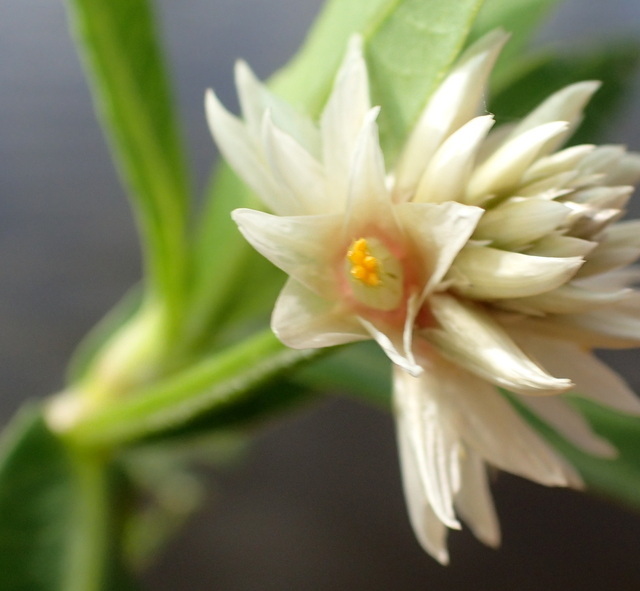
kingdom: Plantae
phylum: Tracheophyta
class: Magnoliopsida
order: Caryophyllales
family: Amaranthaceae
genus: Alternanthera
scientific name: Alternanthera philoxeroides
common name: Alligatorweed
